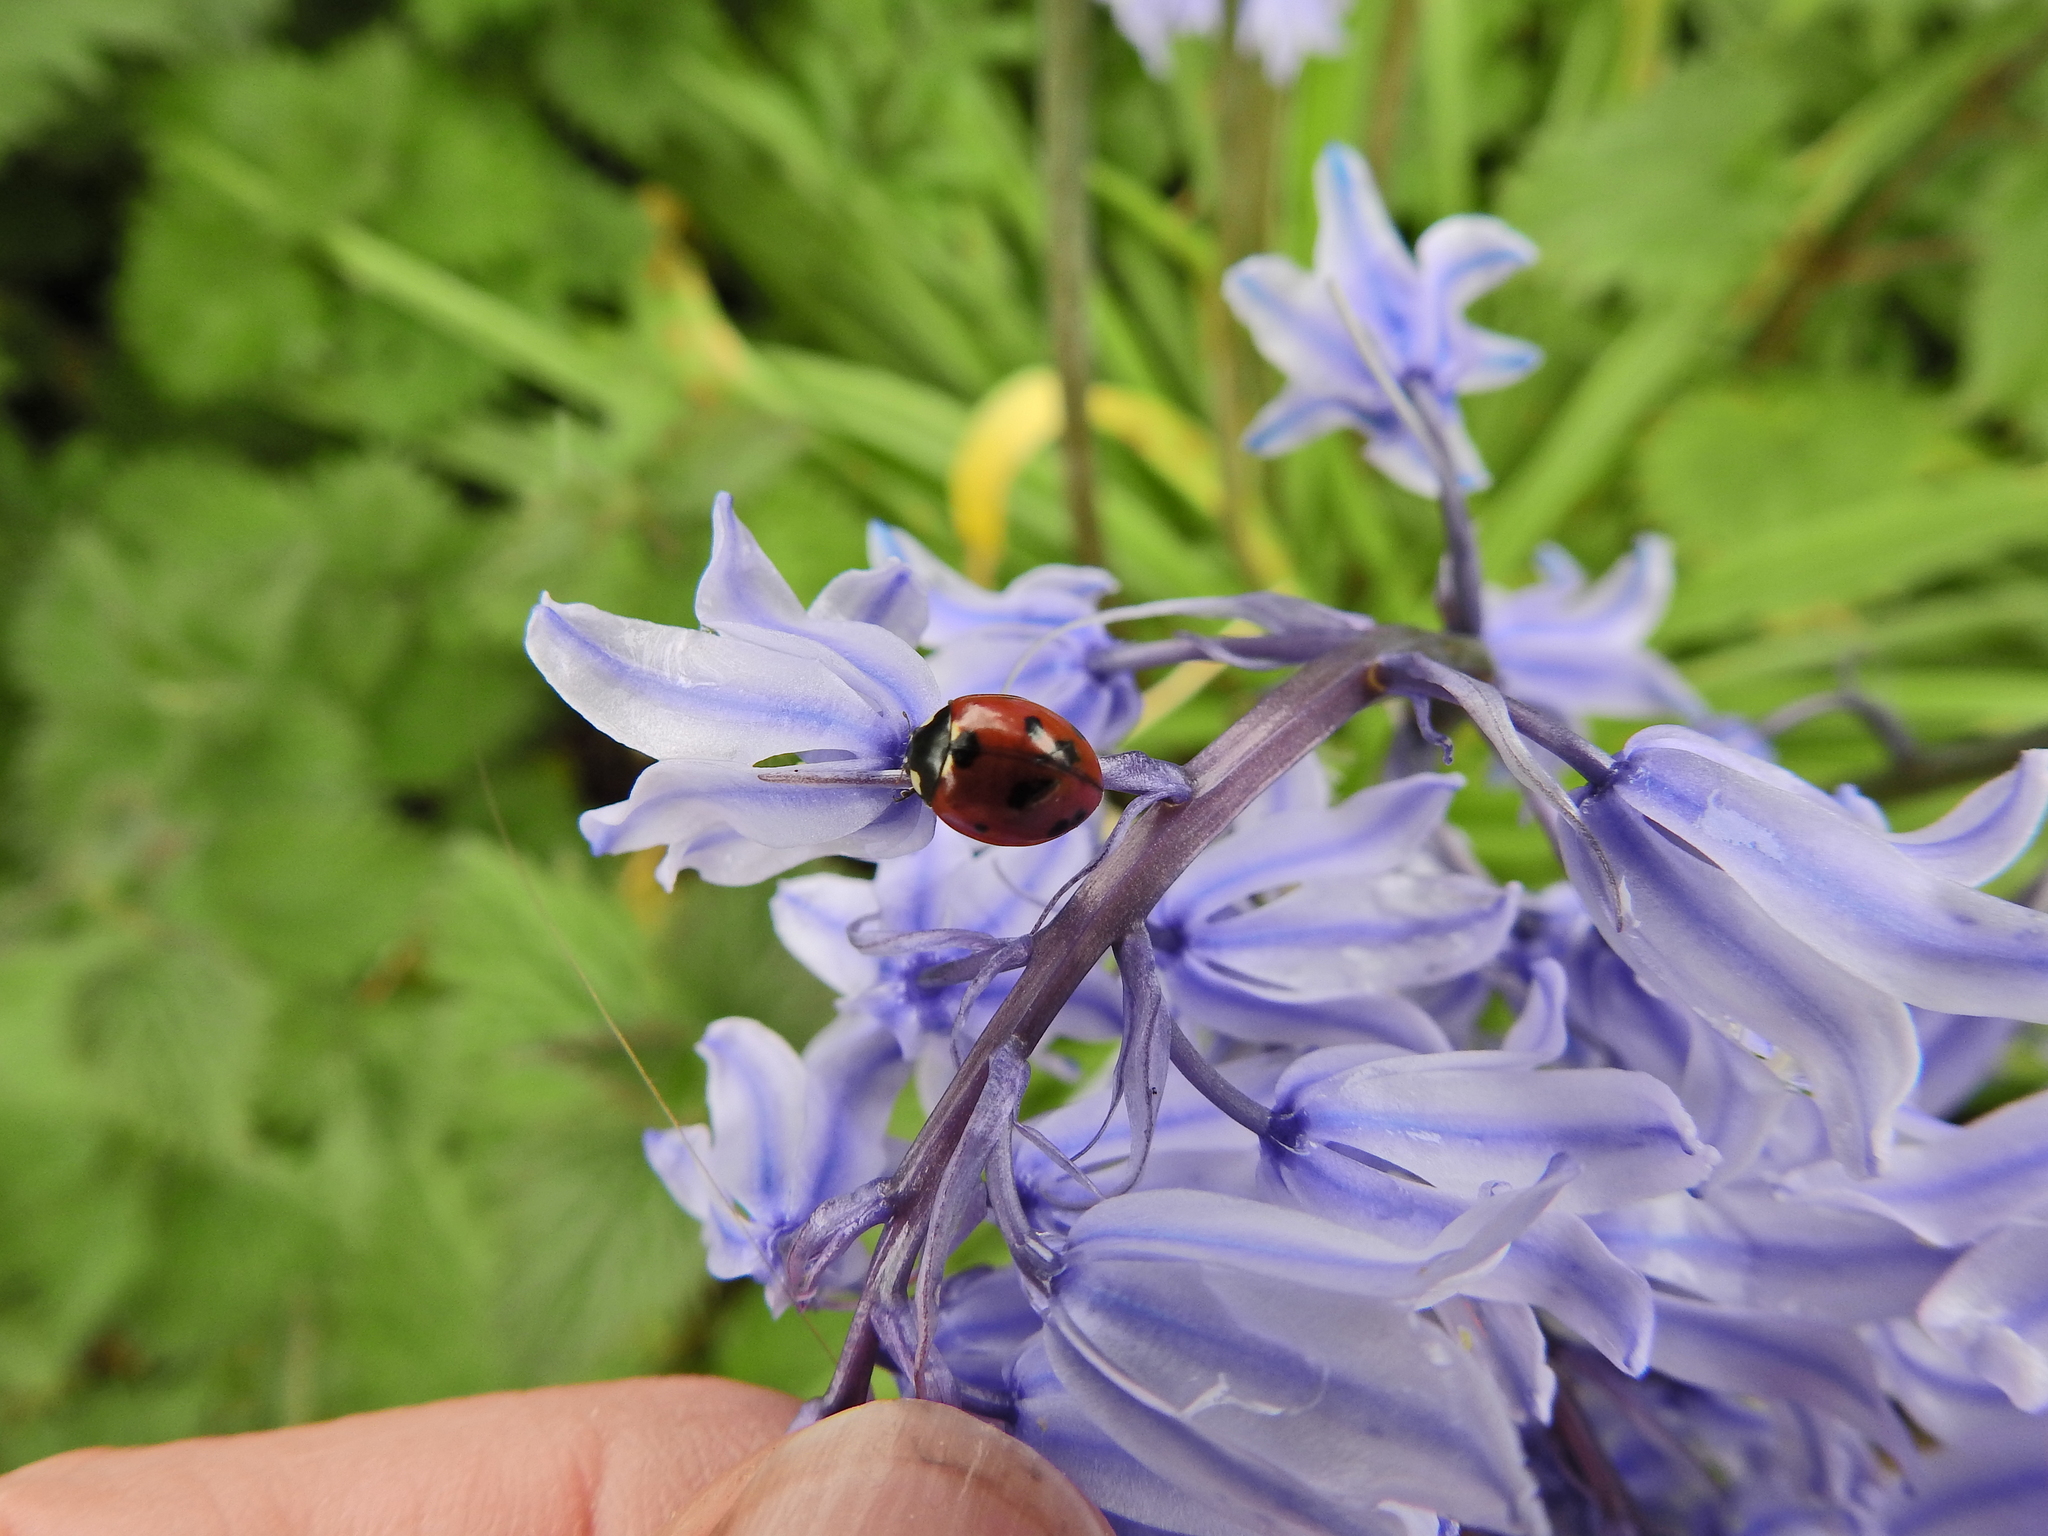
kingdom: Animalia
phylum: Arthropoda
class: Insecta
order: Coleoptera
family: Coccinellidae
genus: Coccinella
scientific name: Coccinella septempunctata
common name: Sevenspotted lady beetle
